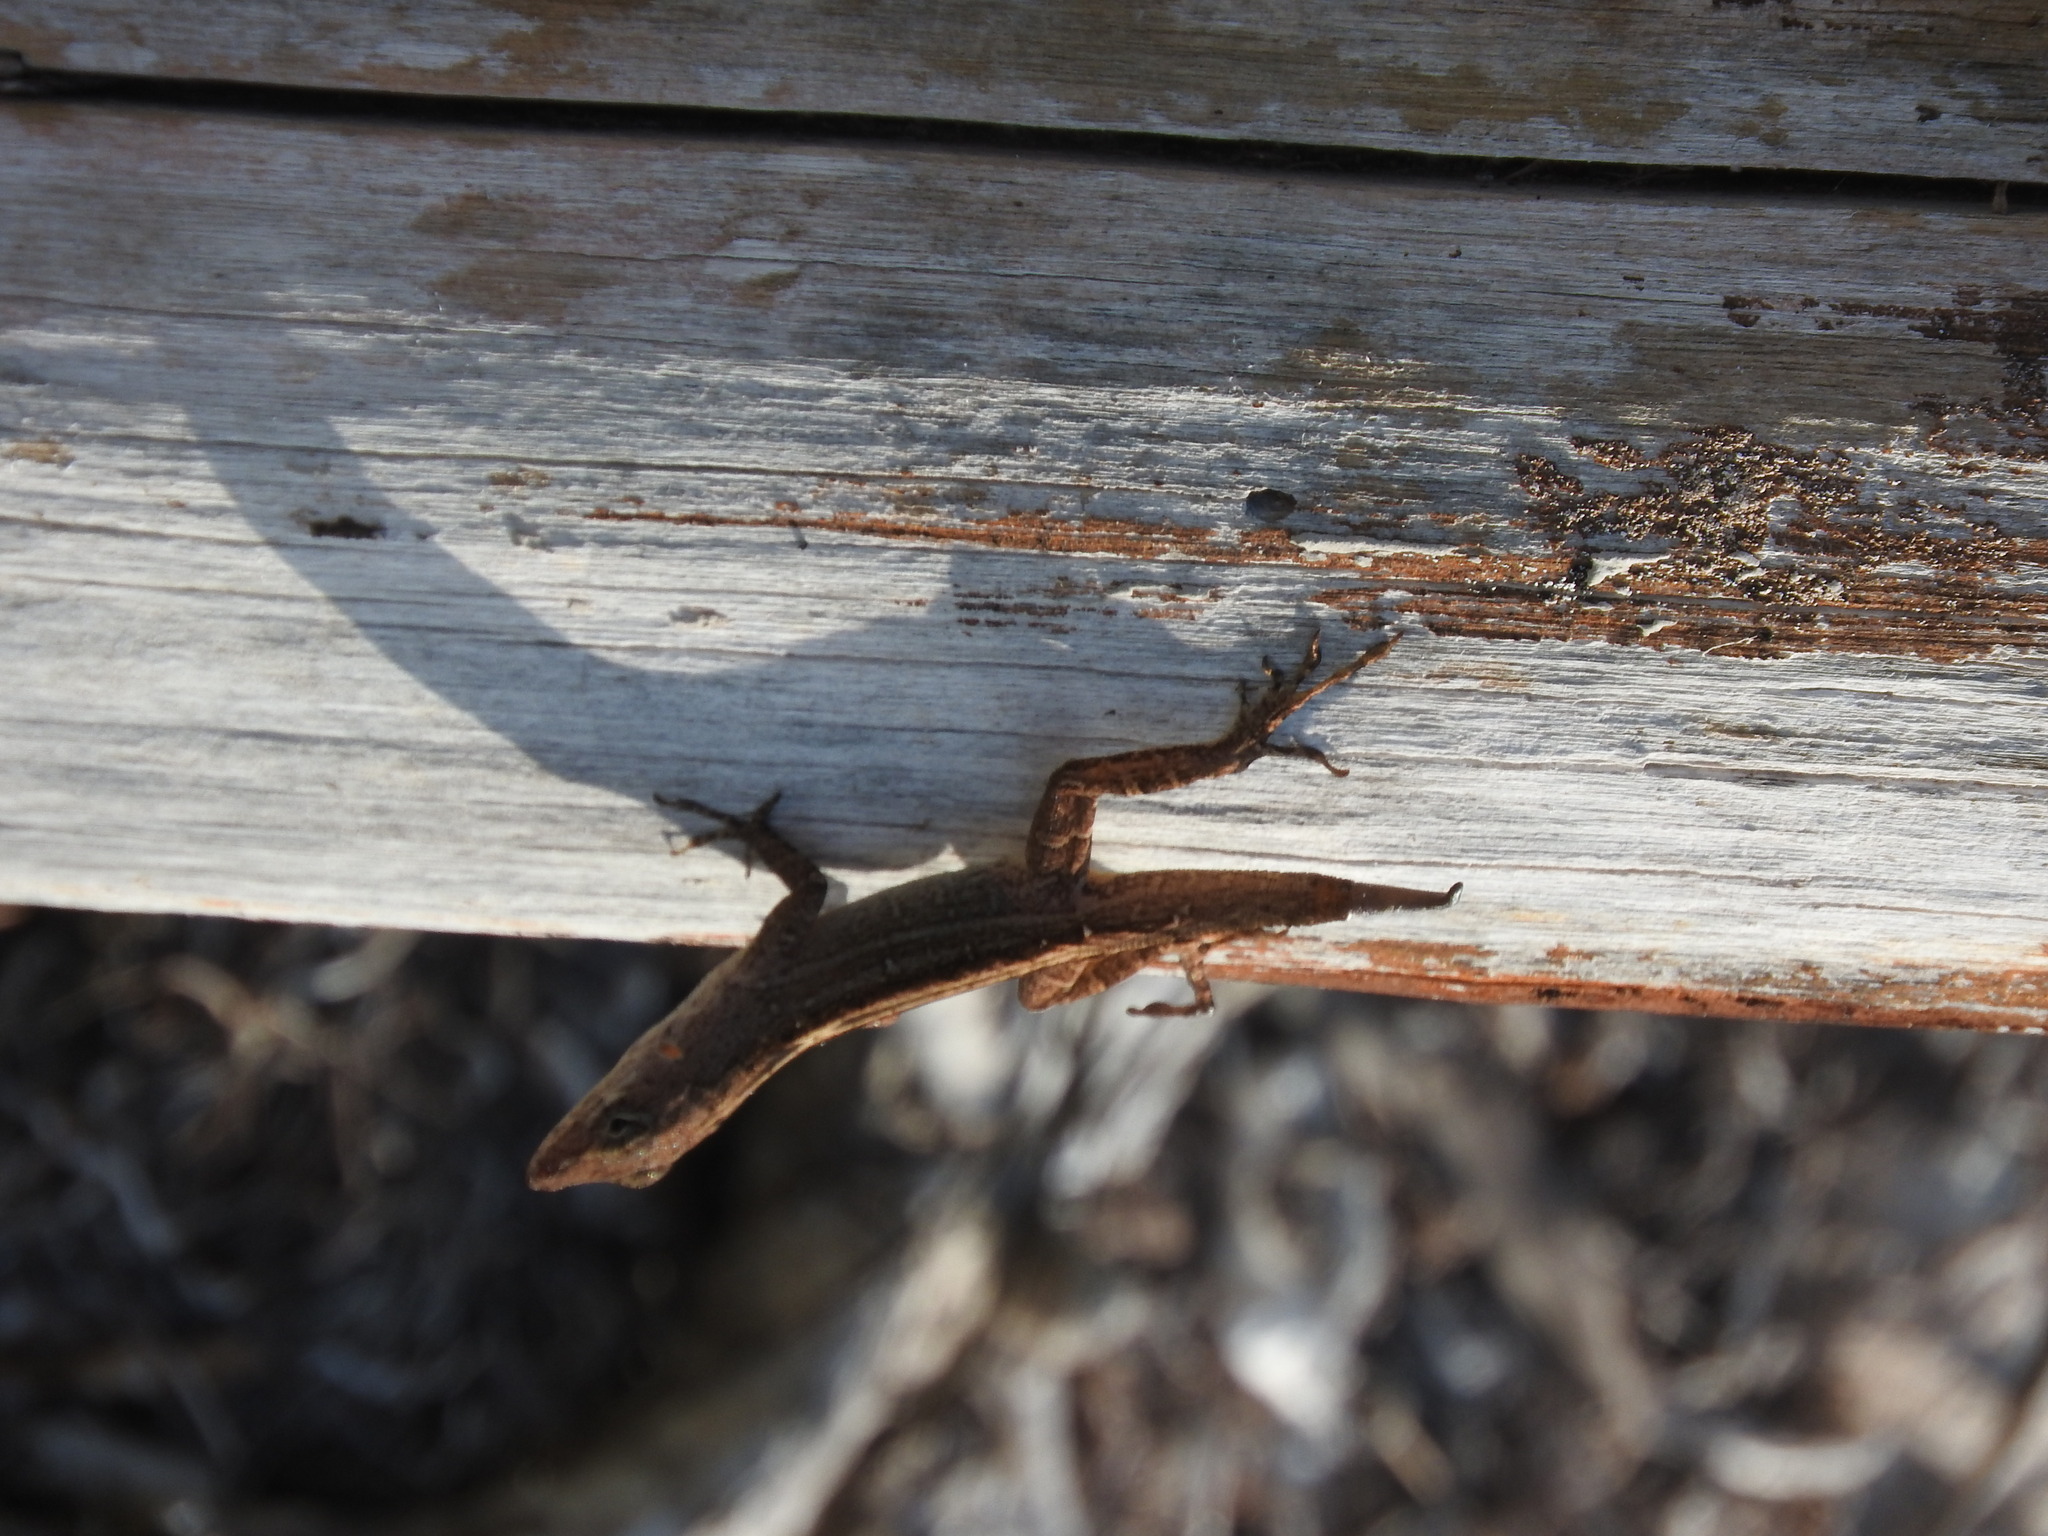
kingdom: Animalia
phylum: Chordata
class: Squamata
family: Dactyloidae
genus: Anolis
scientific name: Anolis sagrei
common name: Brown anole
